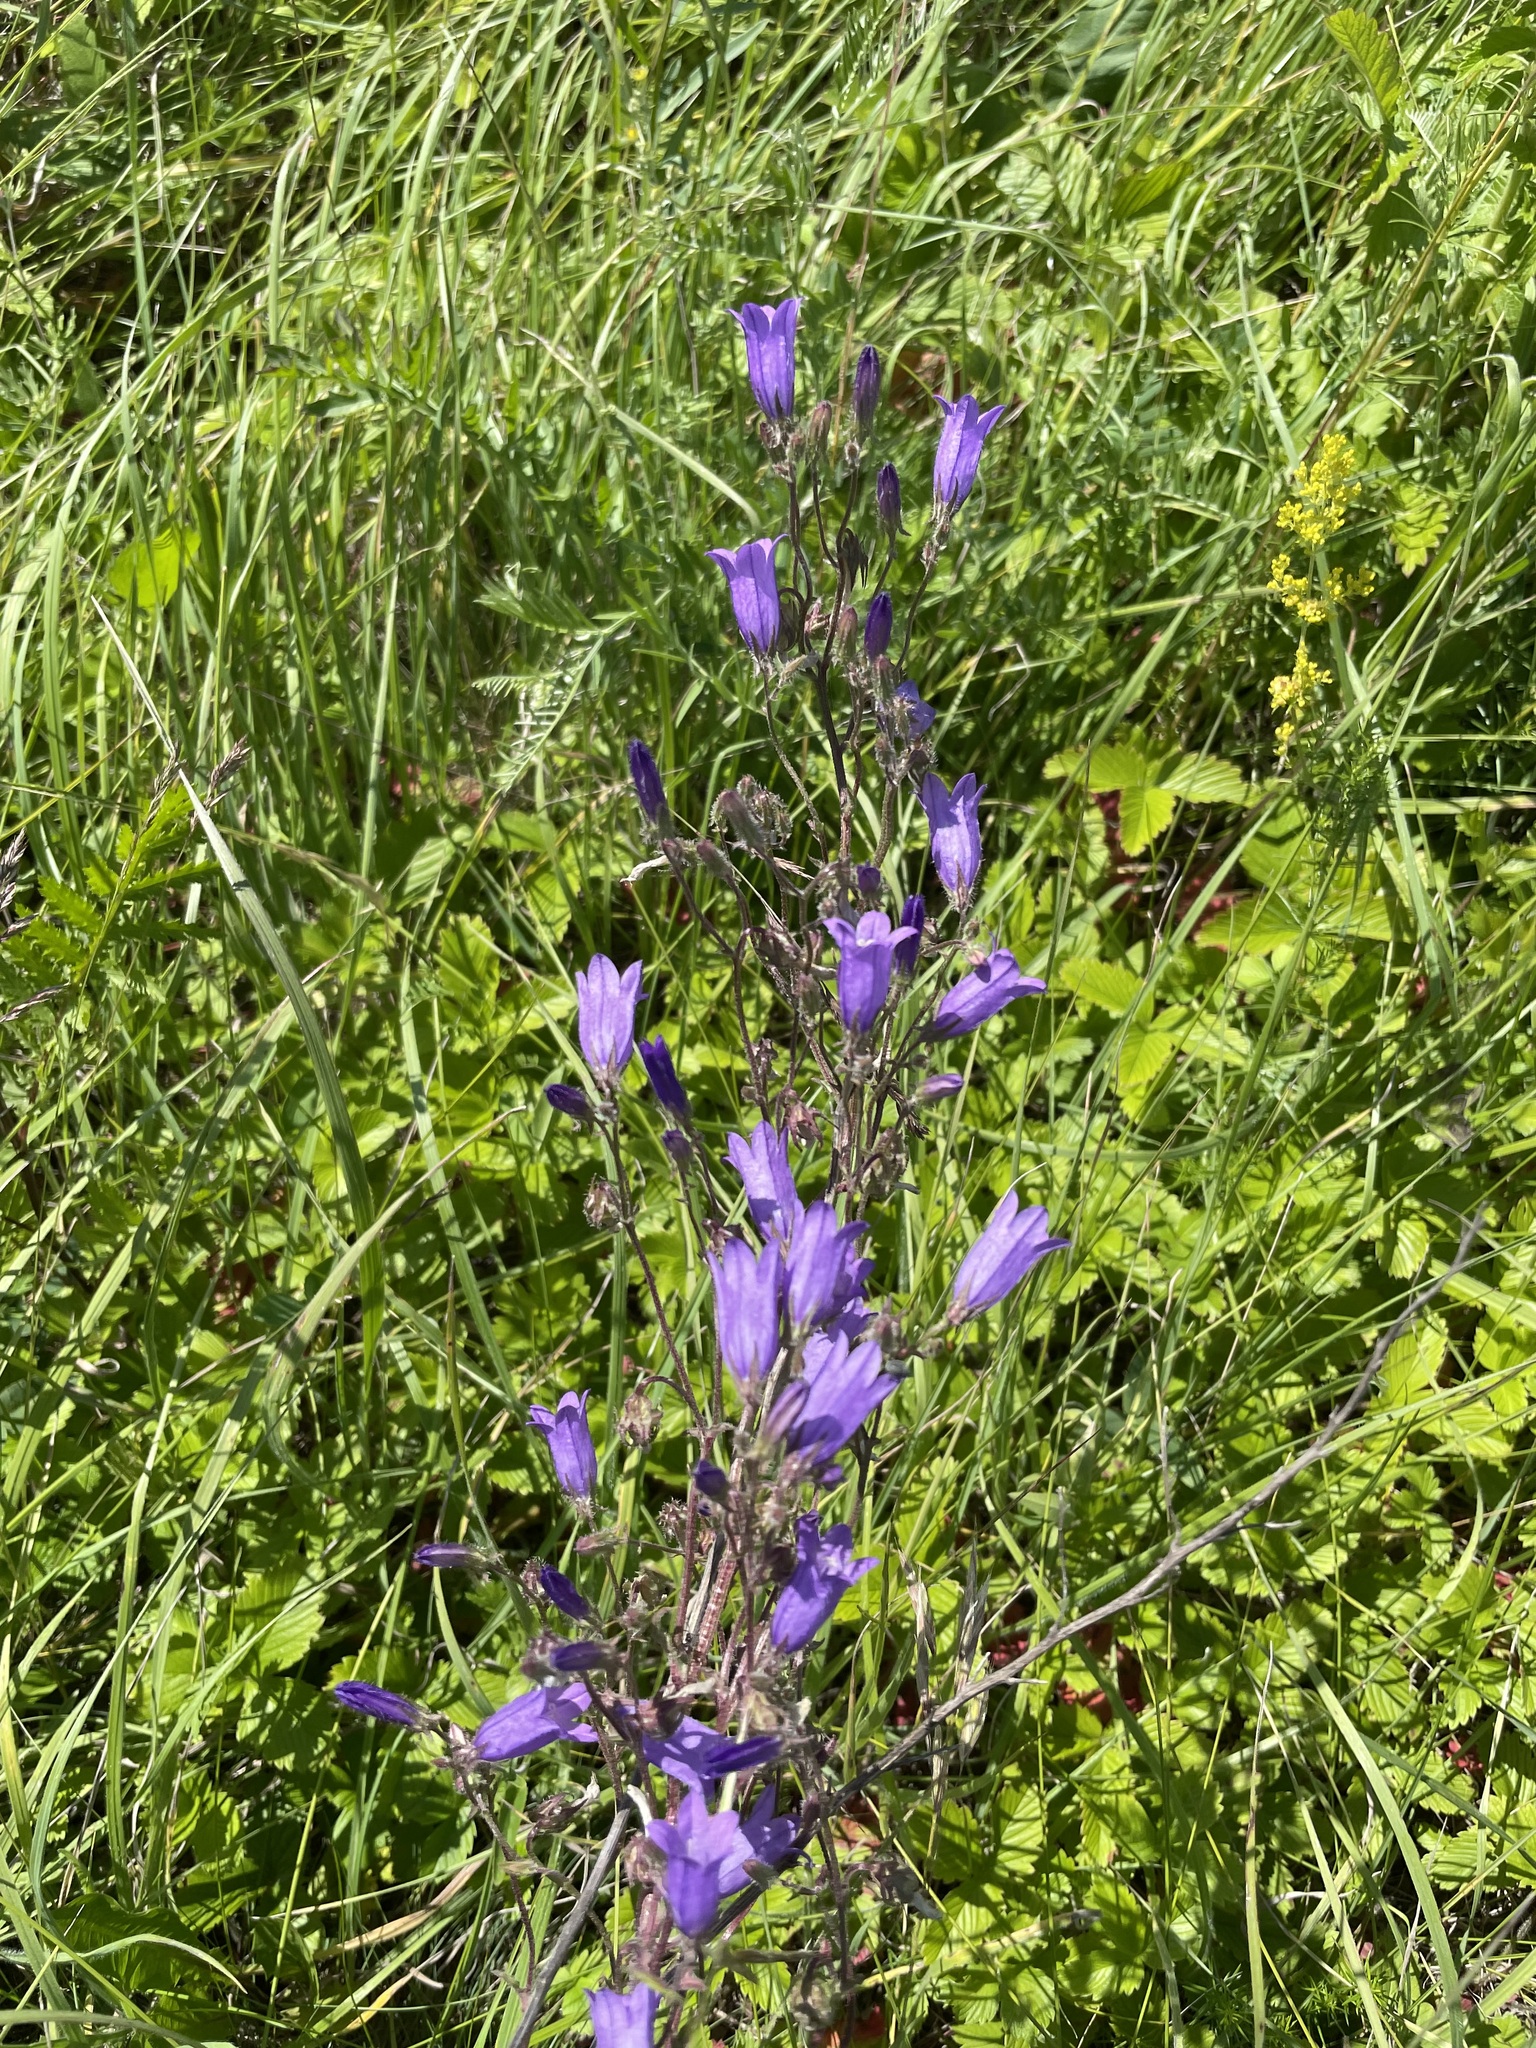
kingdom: Plantae
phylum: Tracheophyta
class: Magnoliopsida
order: Asterales
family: Campanulaceae
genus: Campanula
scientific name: Campanula sibirica
